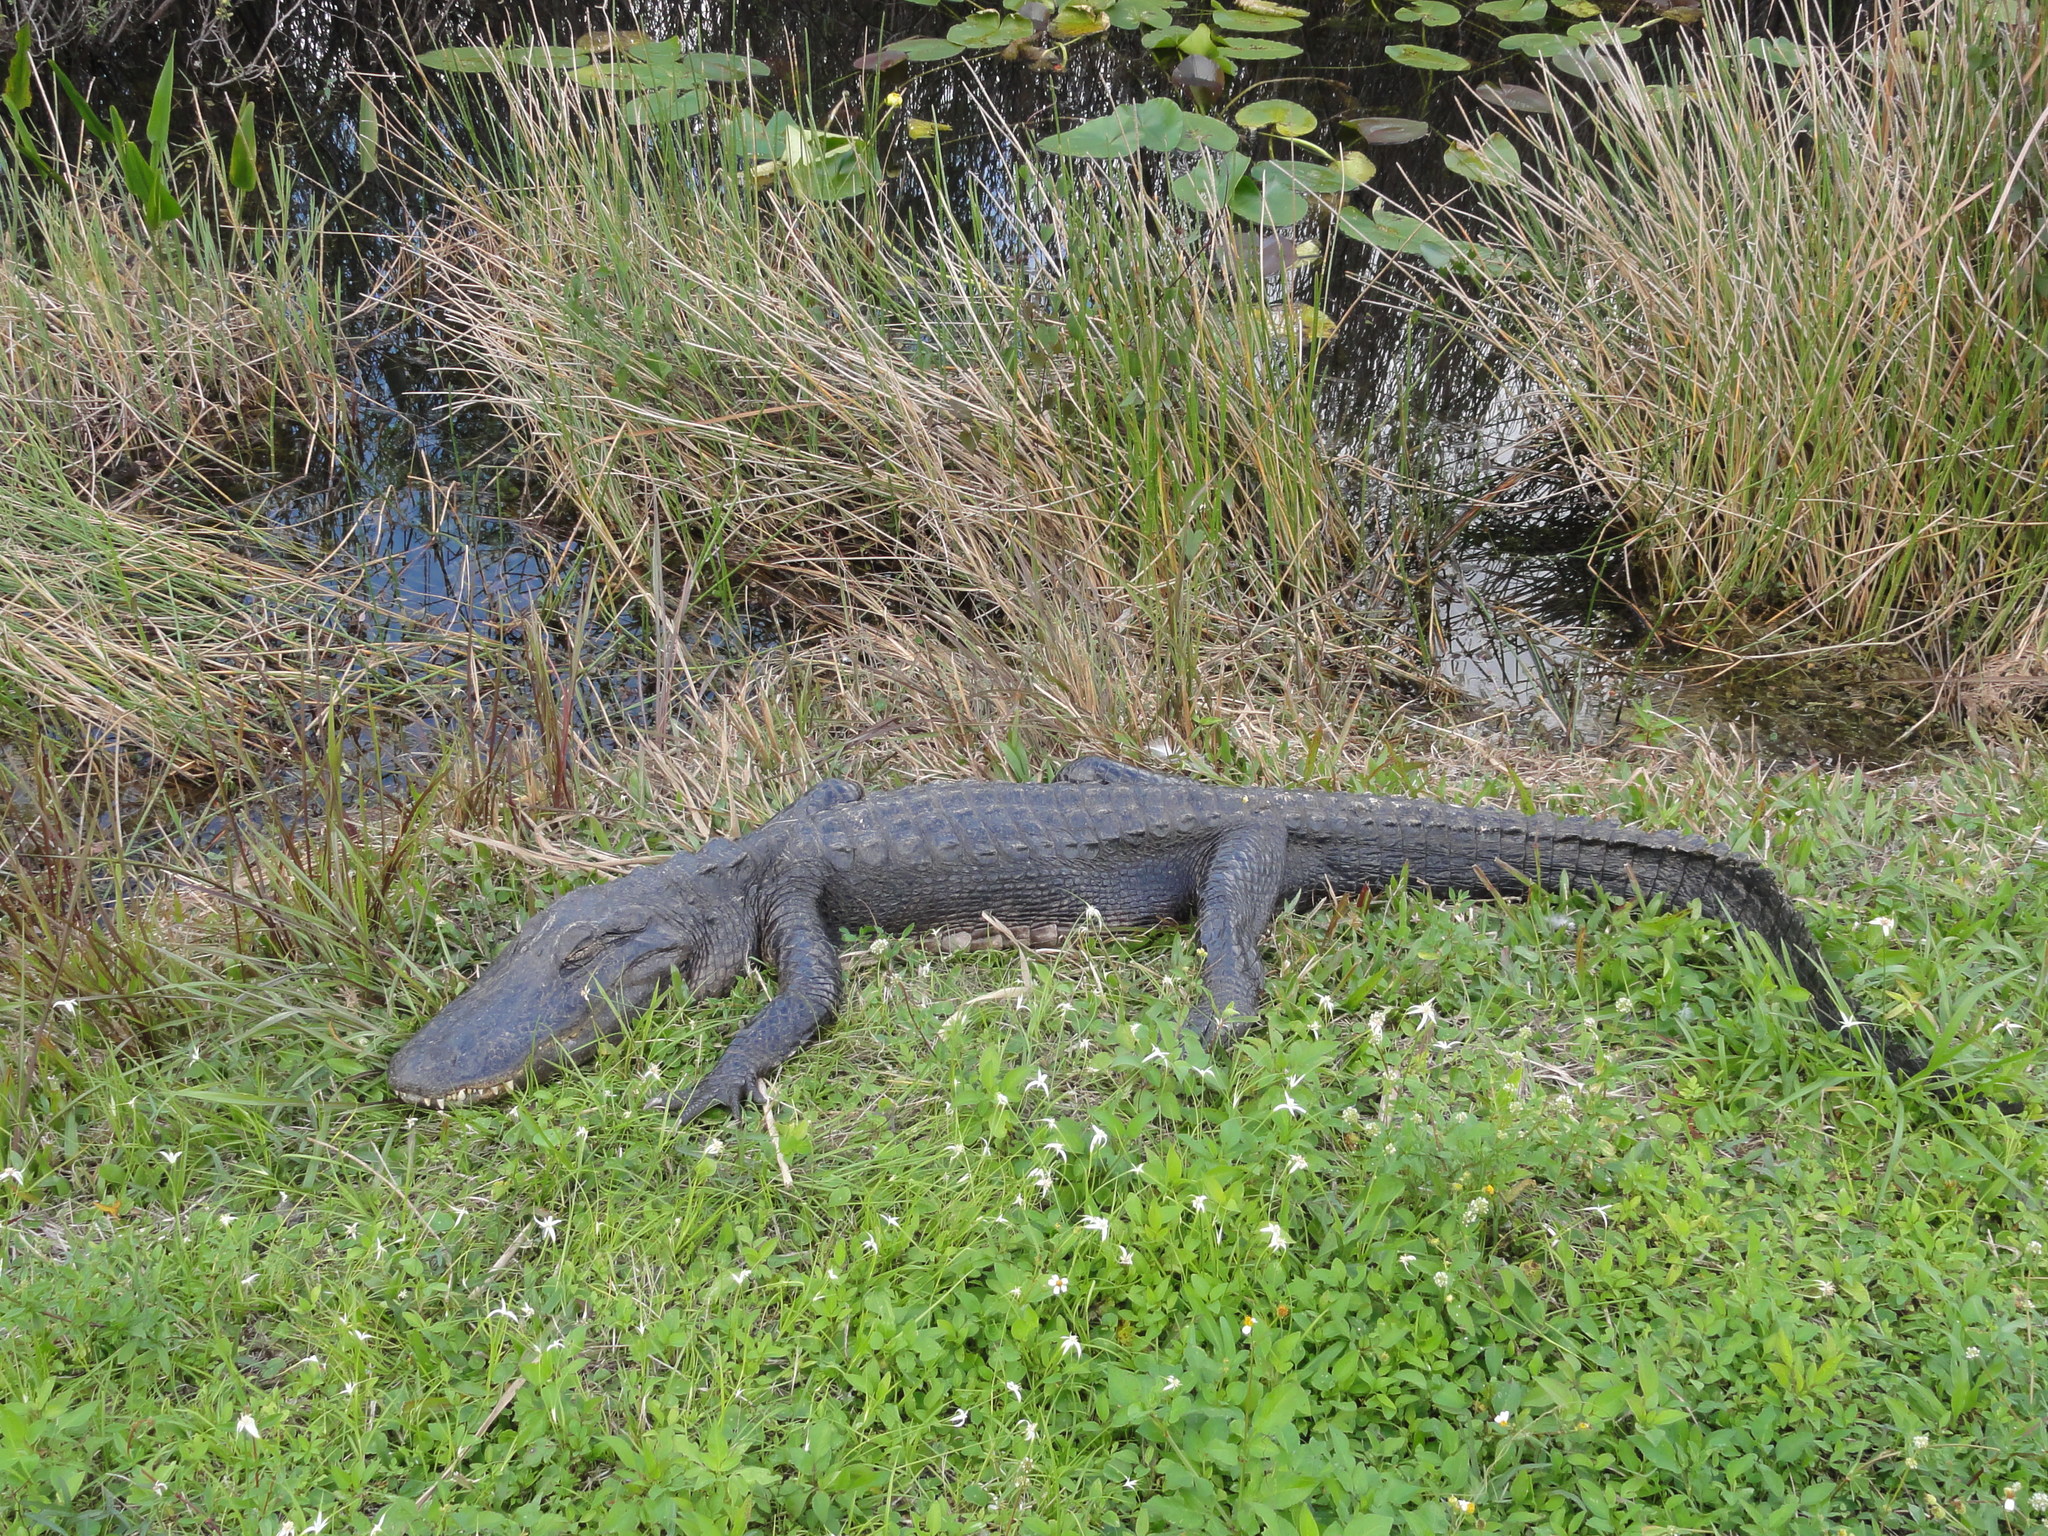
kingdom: Animalia
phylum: Chordata
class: Crocodylia
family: Alligatoridae
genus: Alligator
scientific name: Alligator mississippiensis
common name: American alligator
